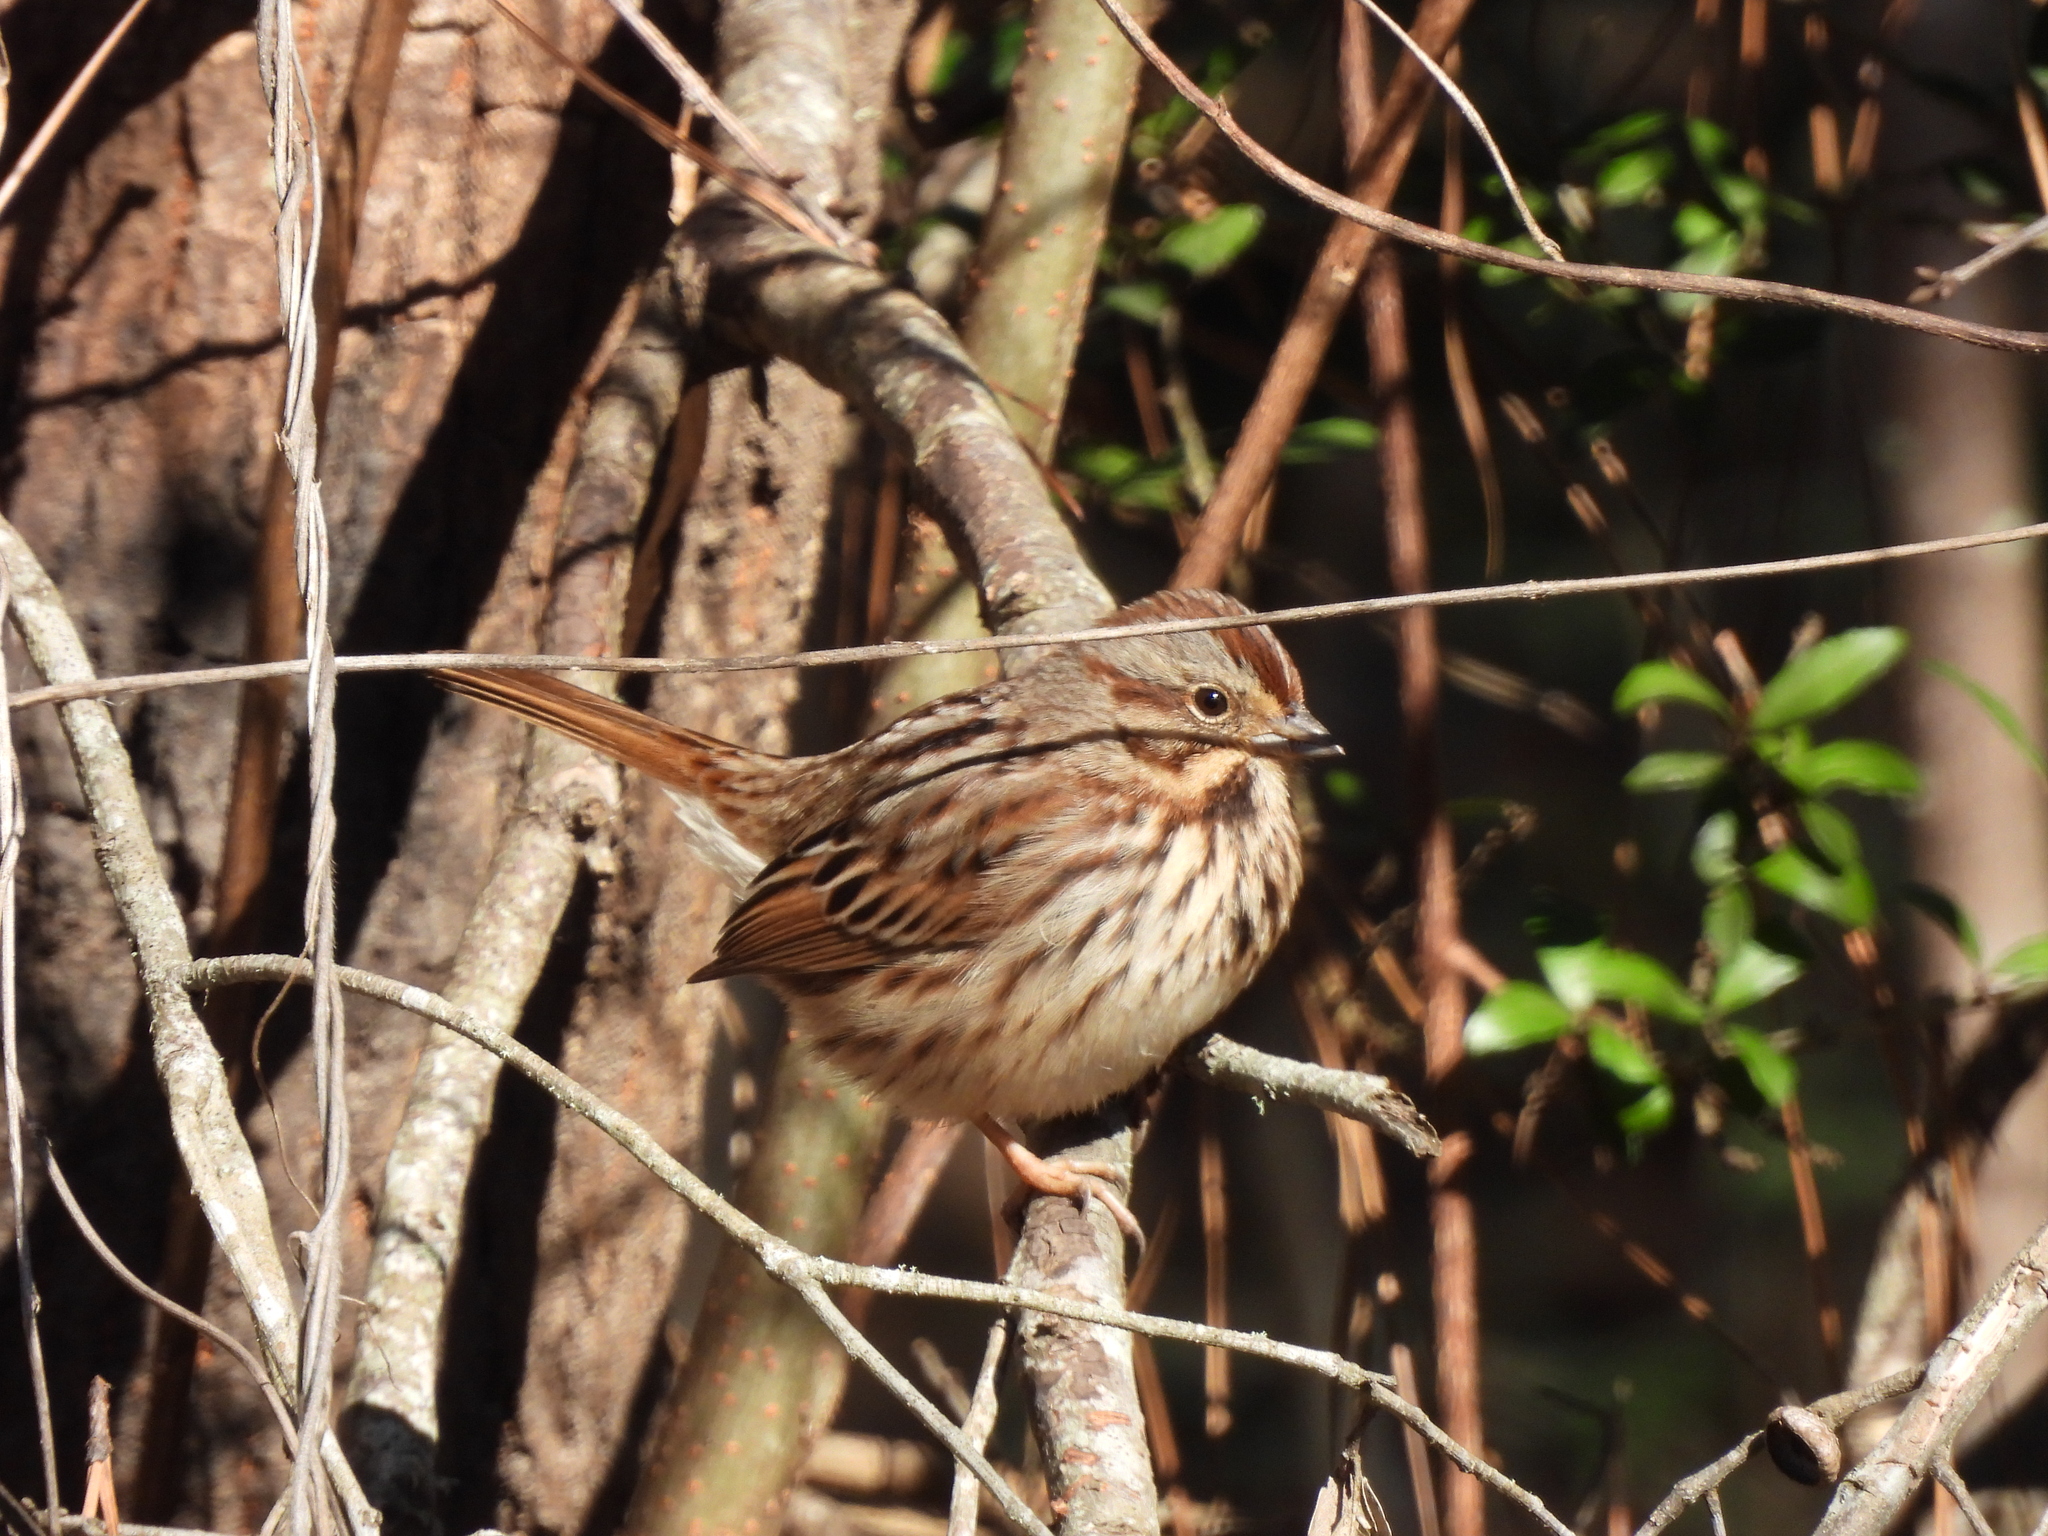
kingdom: Animalia
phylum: Chordata
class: Aves
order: Passeriformes
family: Passerellidae
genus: Melospiza
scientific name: Melospiza melodia
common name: Song sparrow
